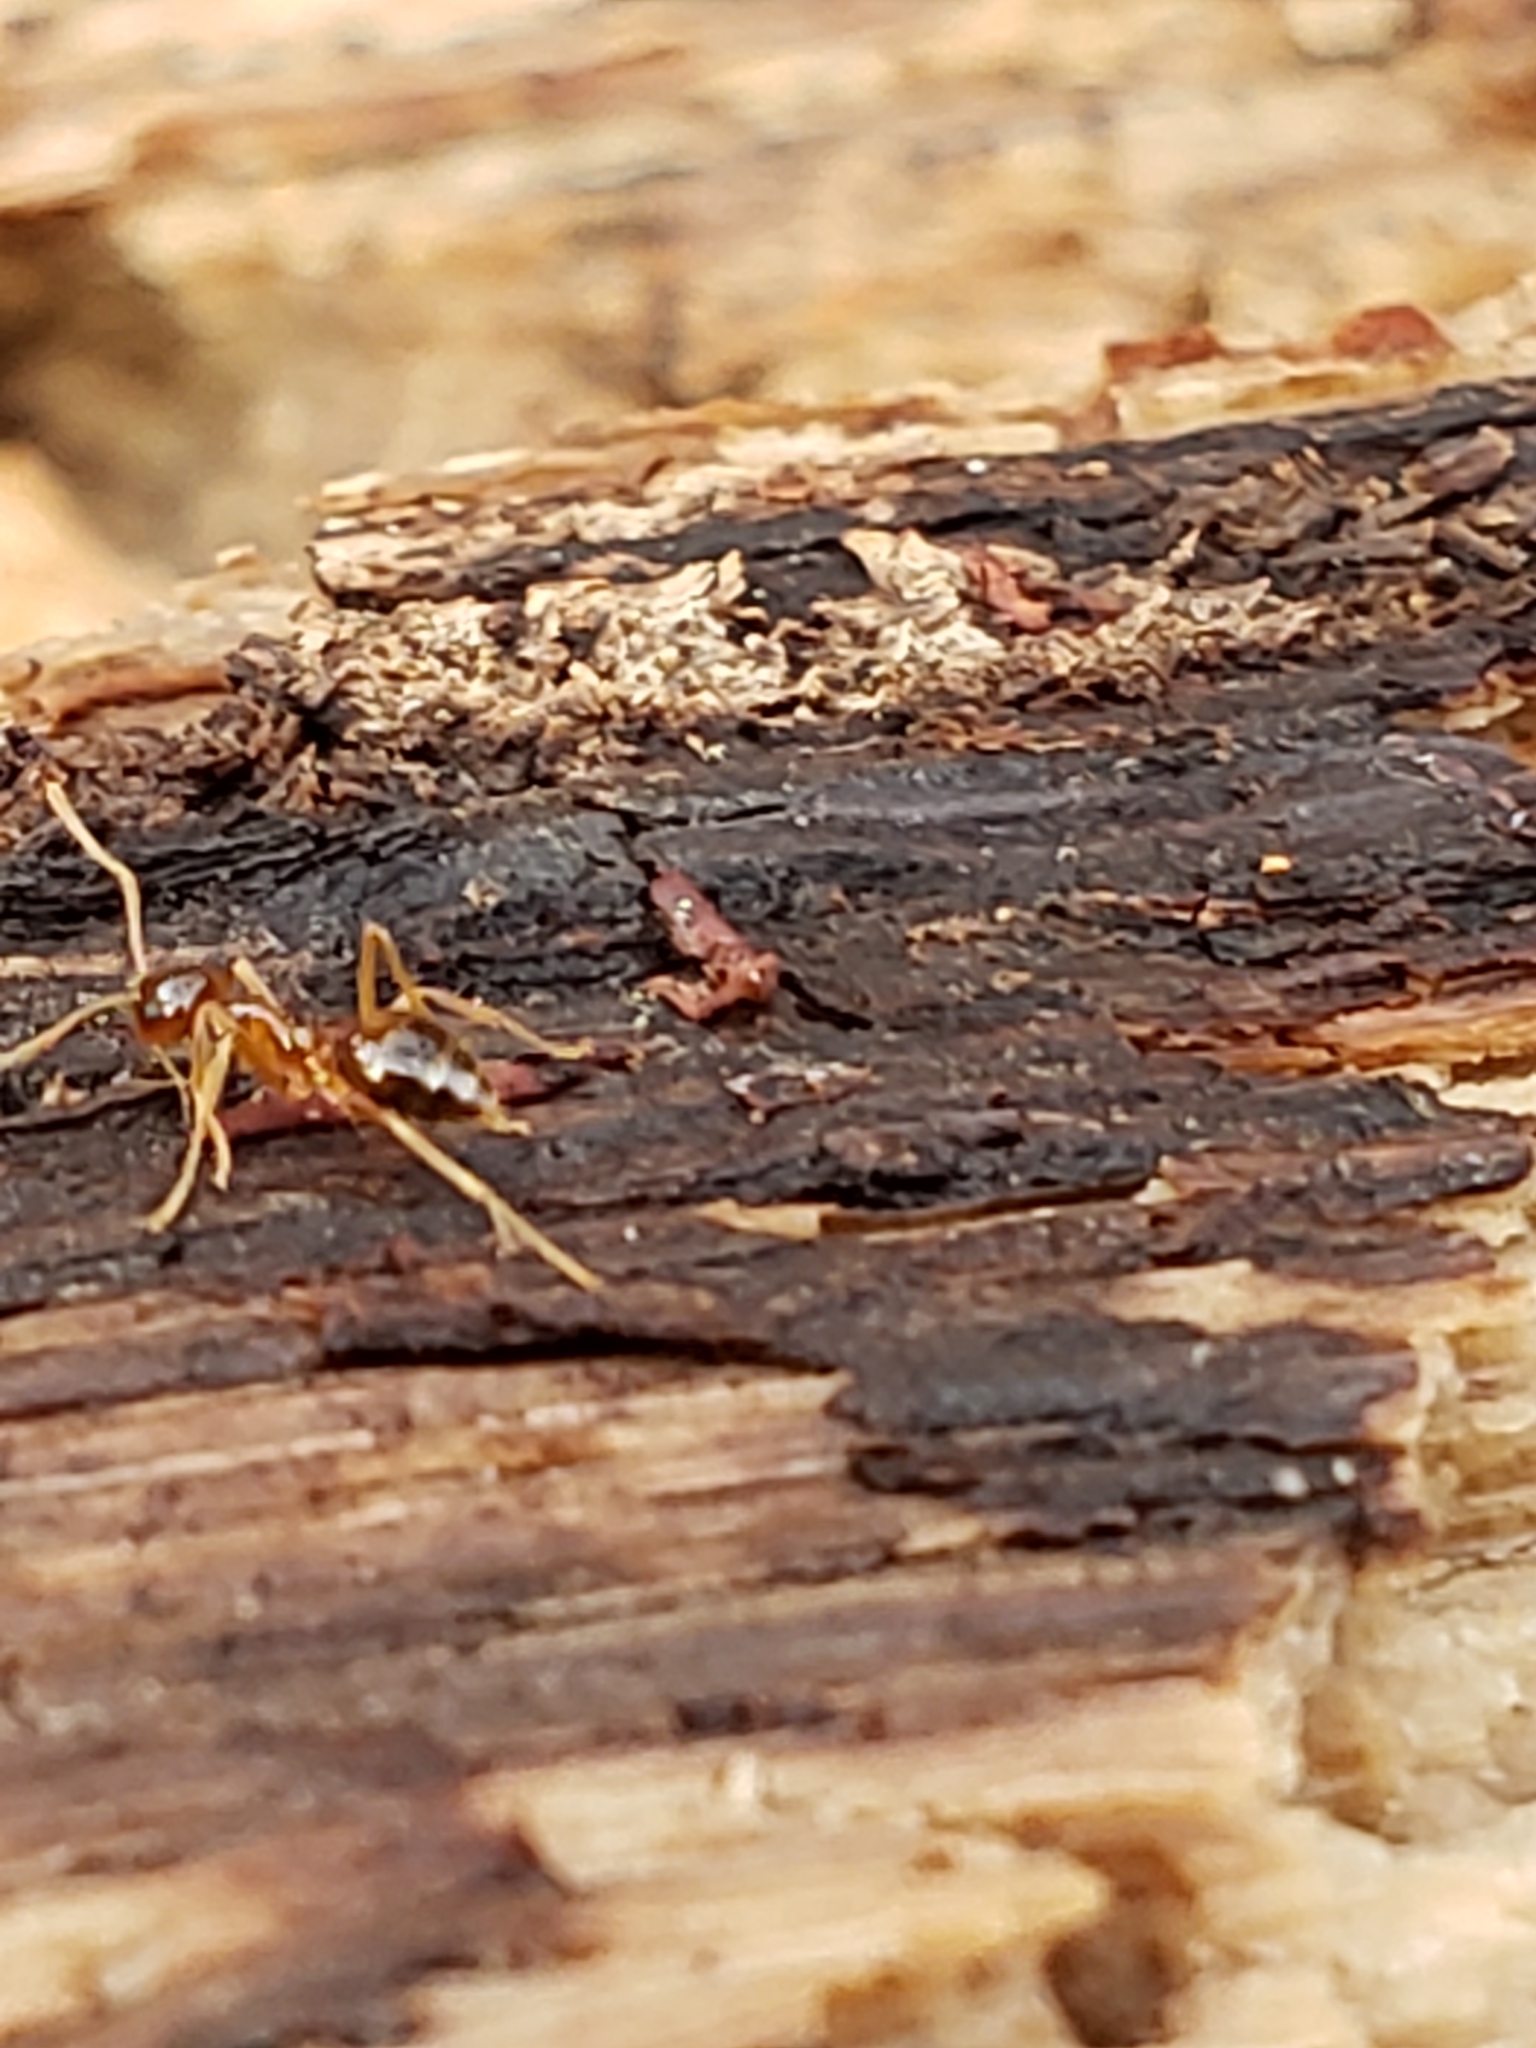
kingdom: Animalia
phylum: Arthropoda
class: Insecta
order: Hymenoptera
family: Formicidae
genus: Prenolepis
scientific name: Prenolepis imparis
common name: Small honey ant
